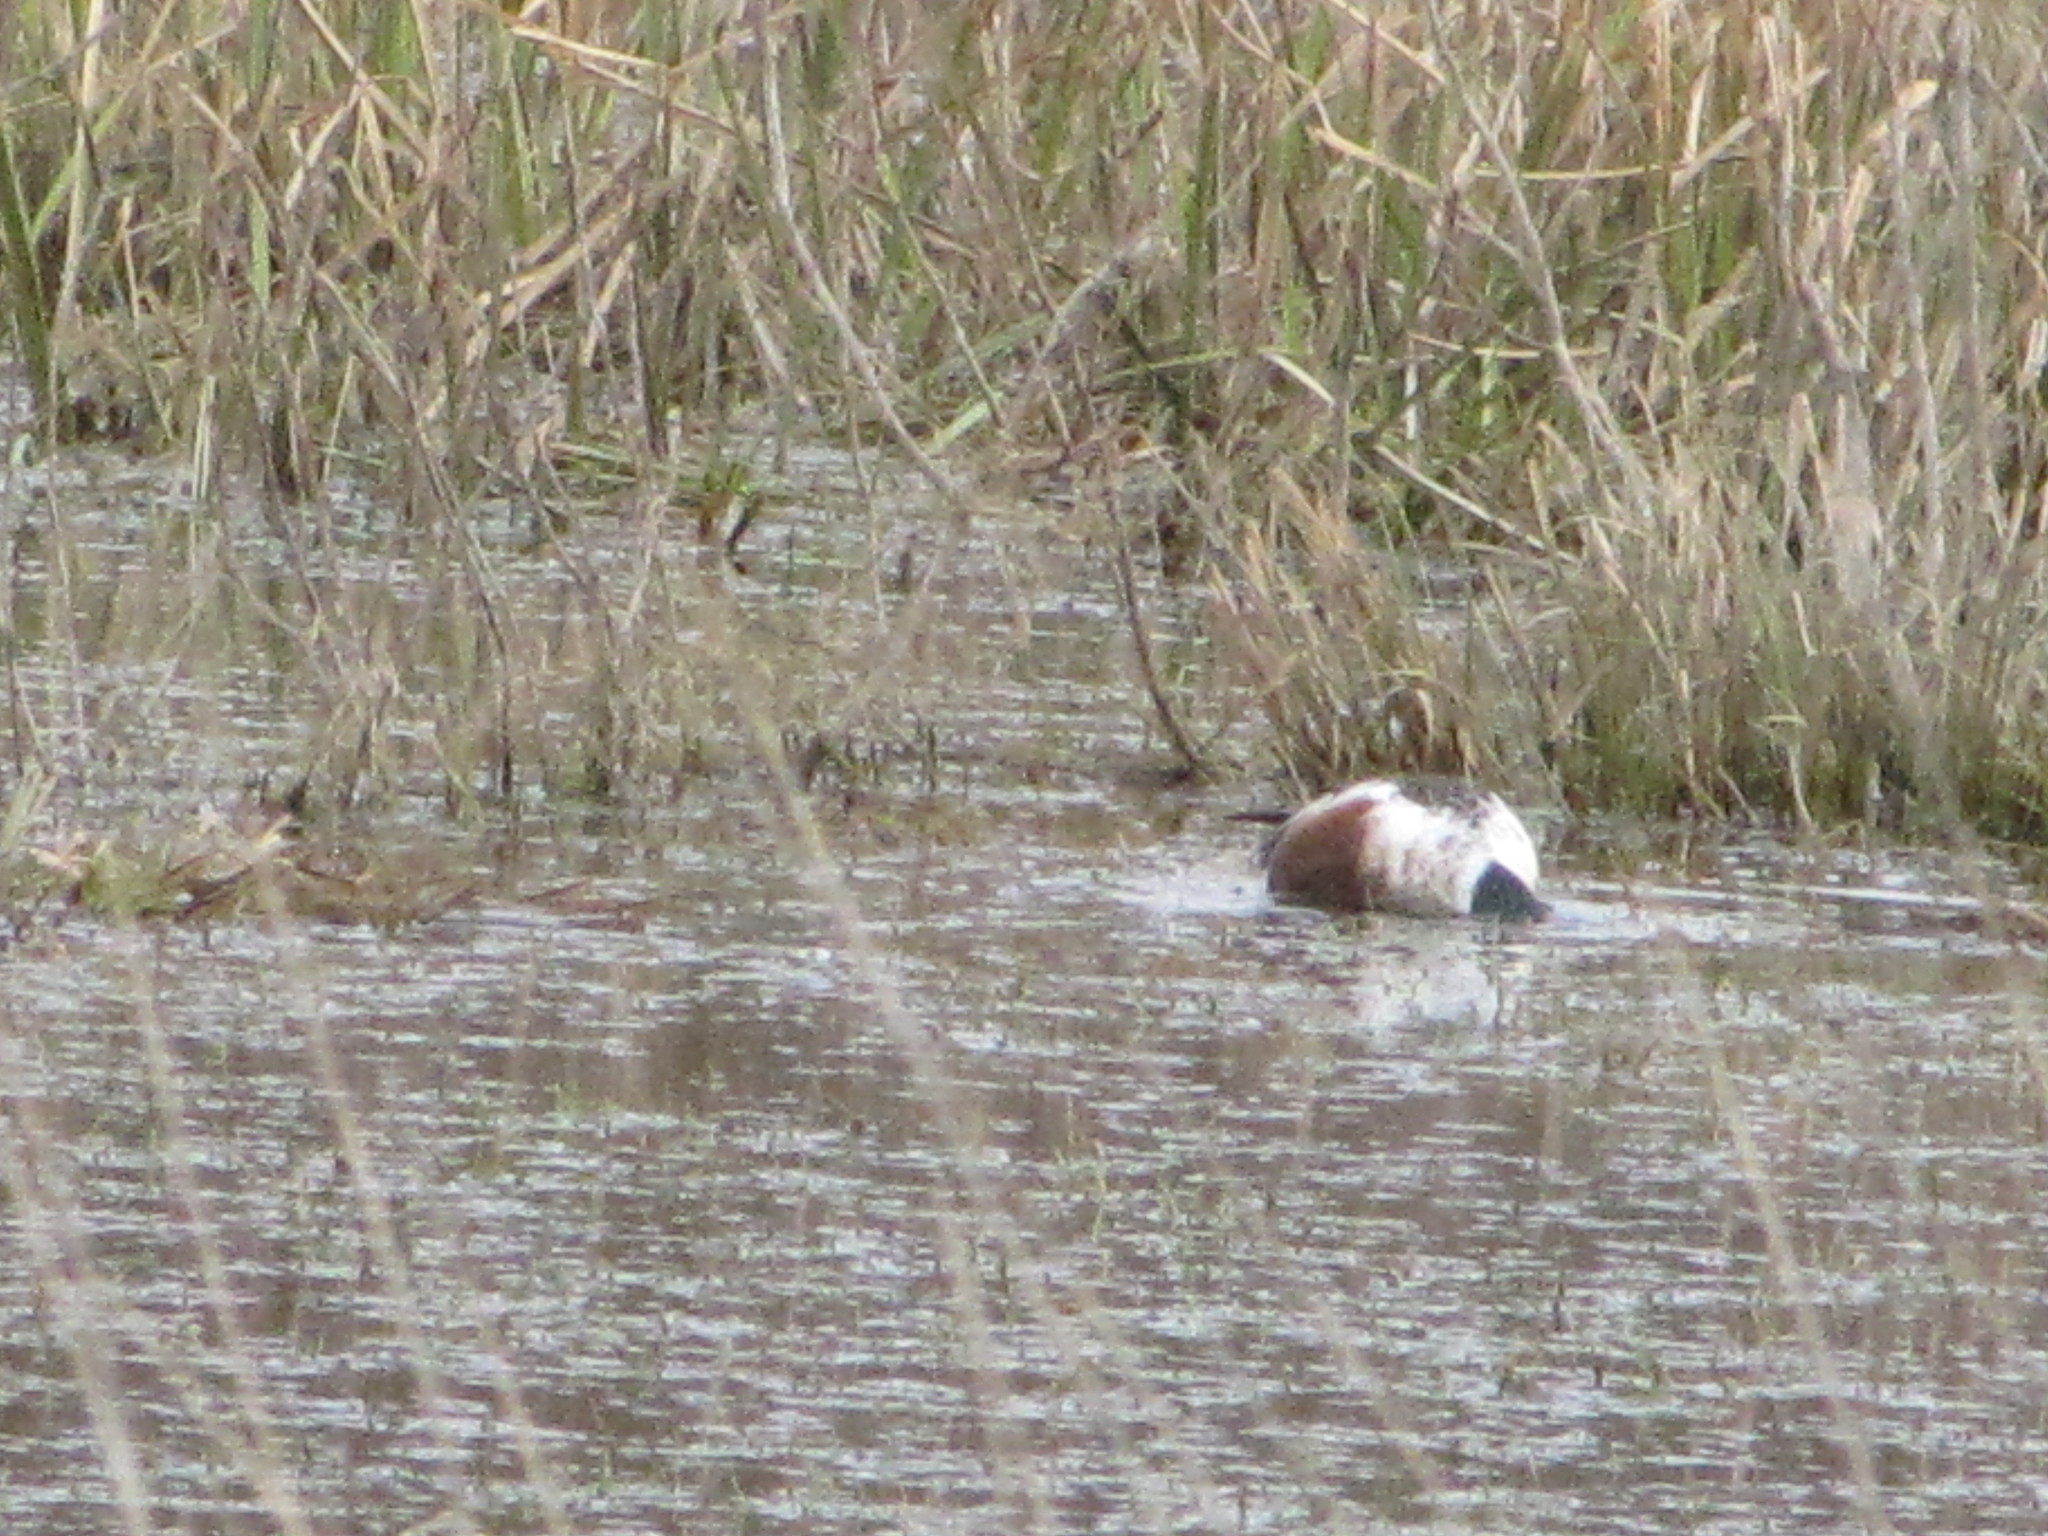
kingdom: Animalia
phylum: Chordata
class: Aves
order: Anseriformes
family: Anatidae
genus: Spatula
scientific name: Spatula clypeata
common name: Northern shoveler
